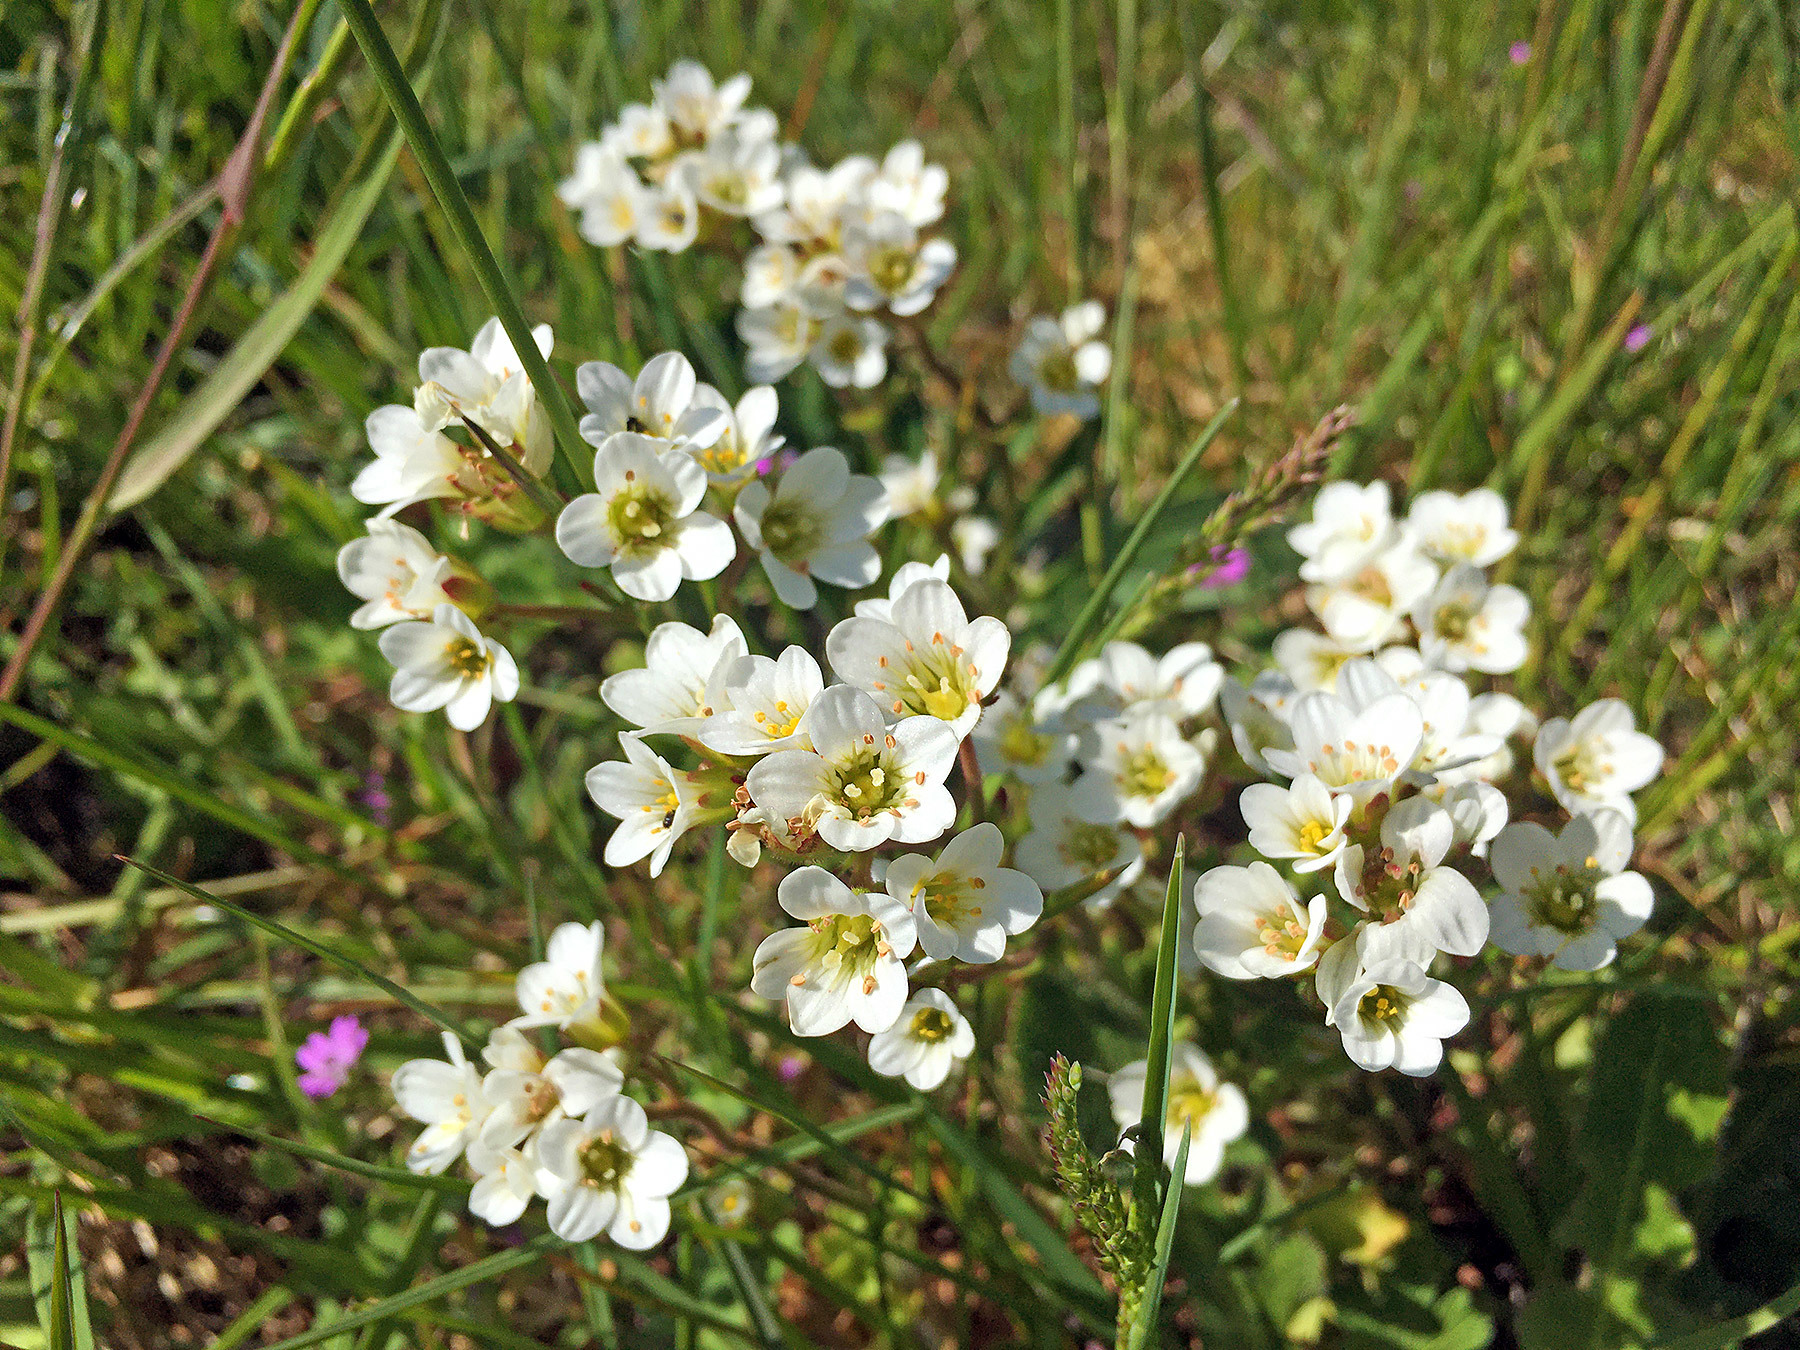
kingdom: Plantae
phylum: Tracheophyta
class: Magnoliopsida
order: Saxifragales
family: Saxifragaceae
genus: Saxifraga
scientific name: Saxifraga granulata
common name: Meadow saxifrage
